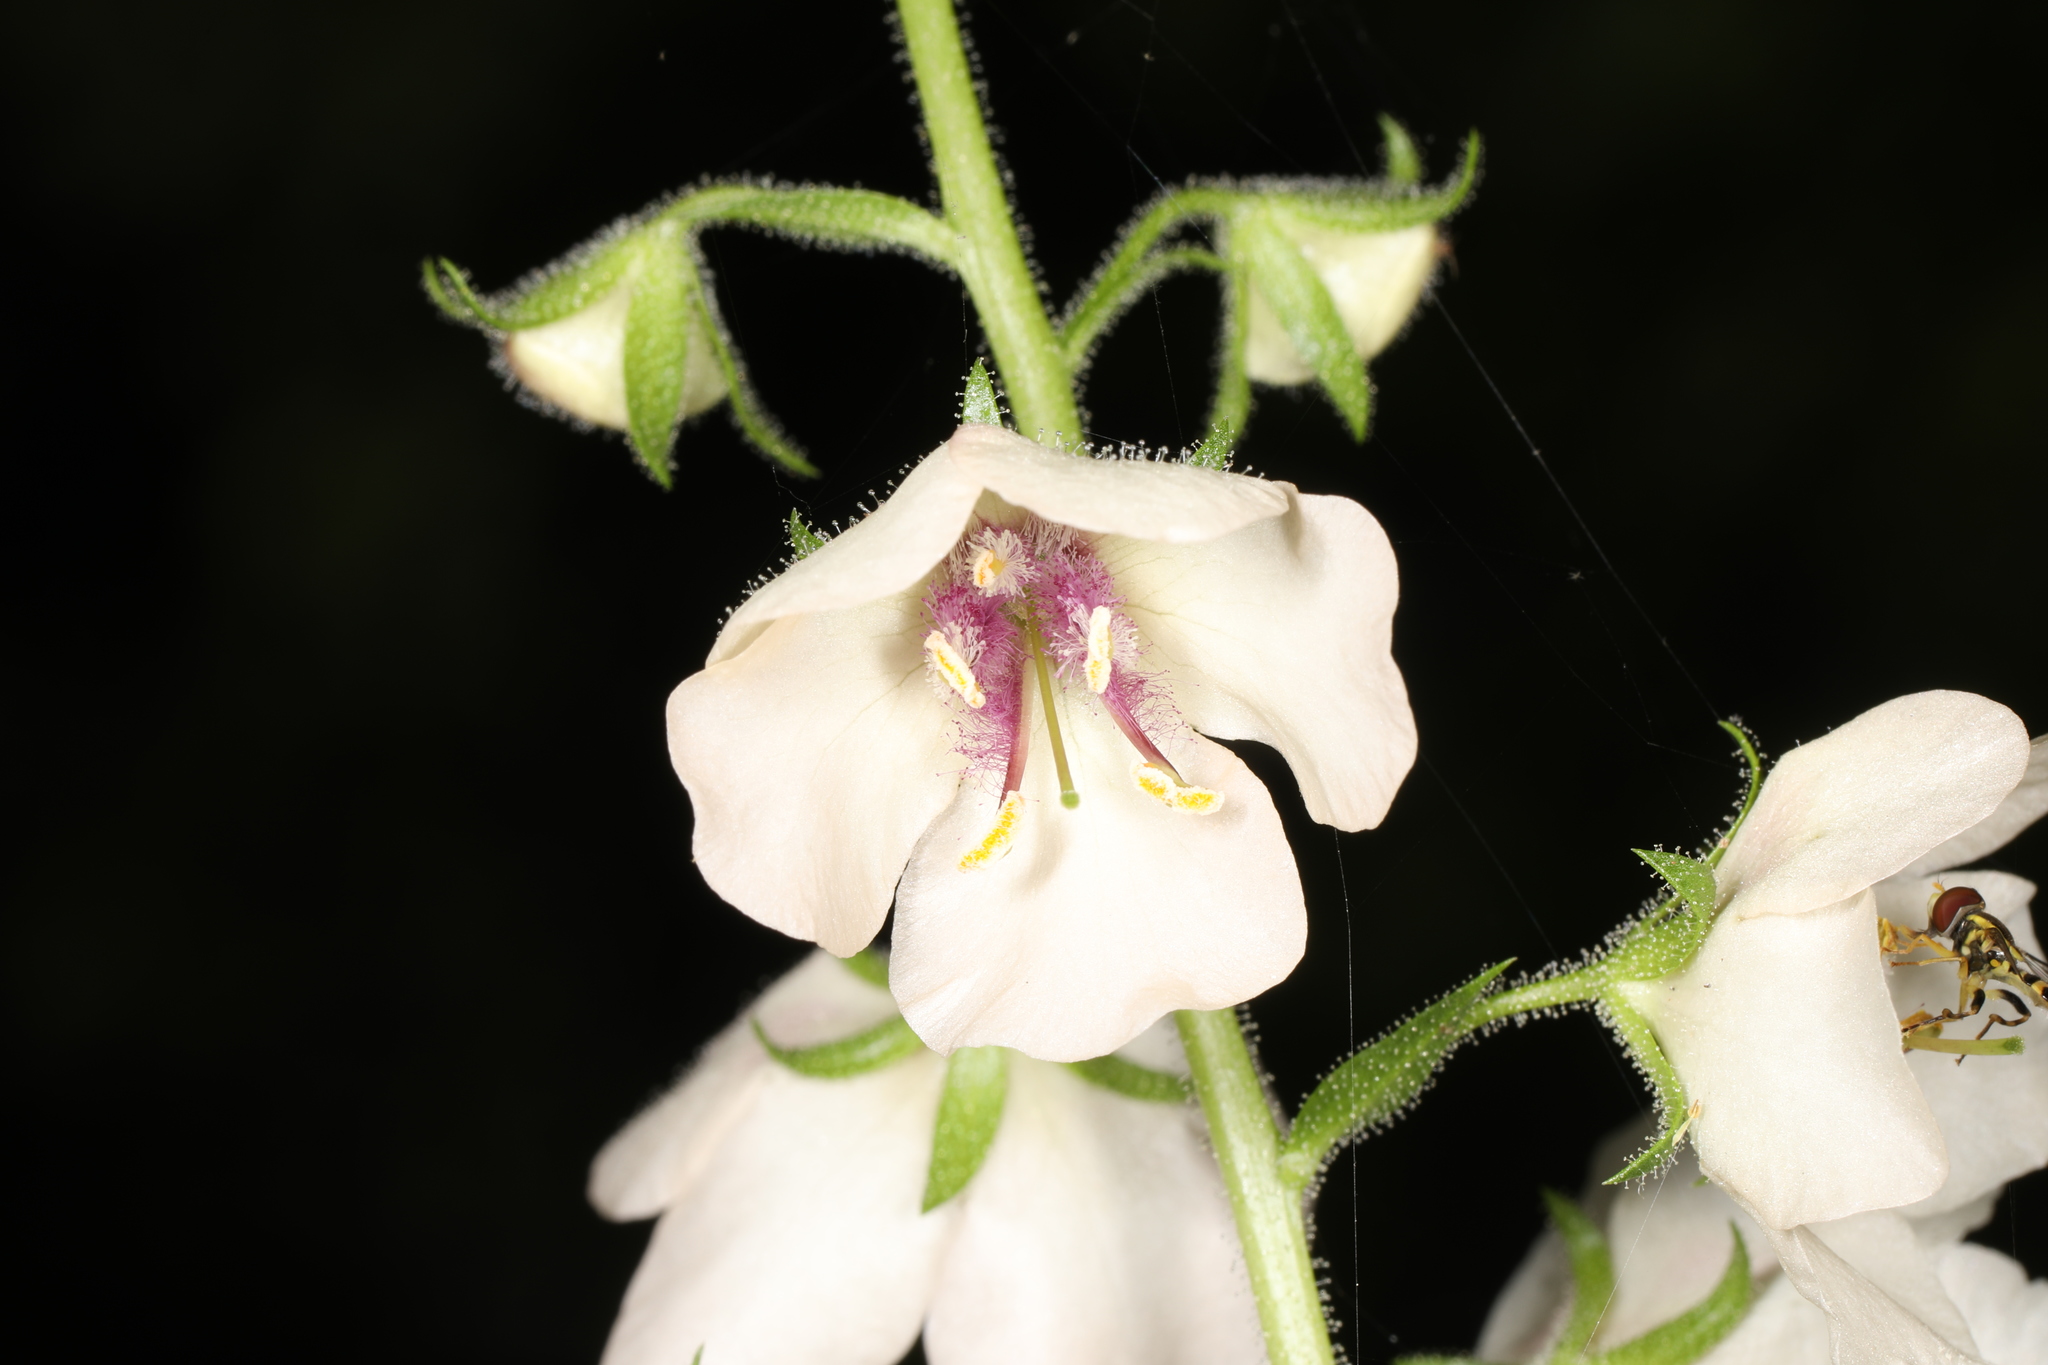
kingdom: Plantae
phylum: Tracheophyta
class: Magnoliopsida
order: Lamiales
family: Scrophulariaceae
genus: Verbascum
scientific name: Verbascum blattaria
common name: Moth mullein
